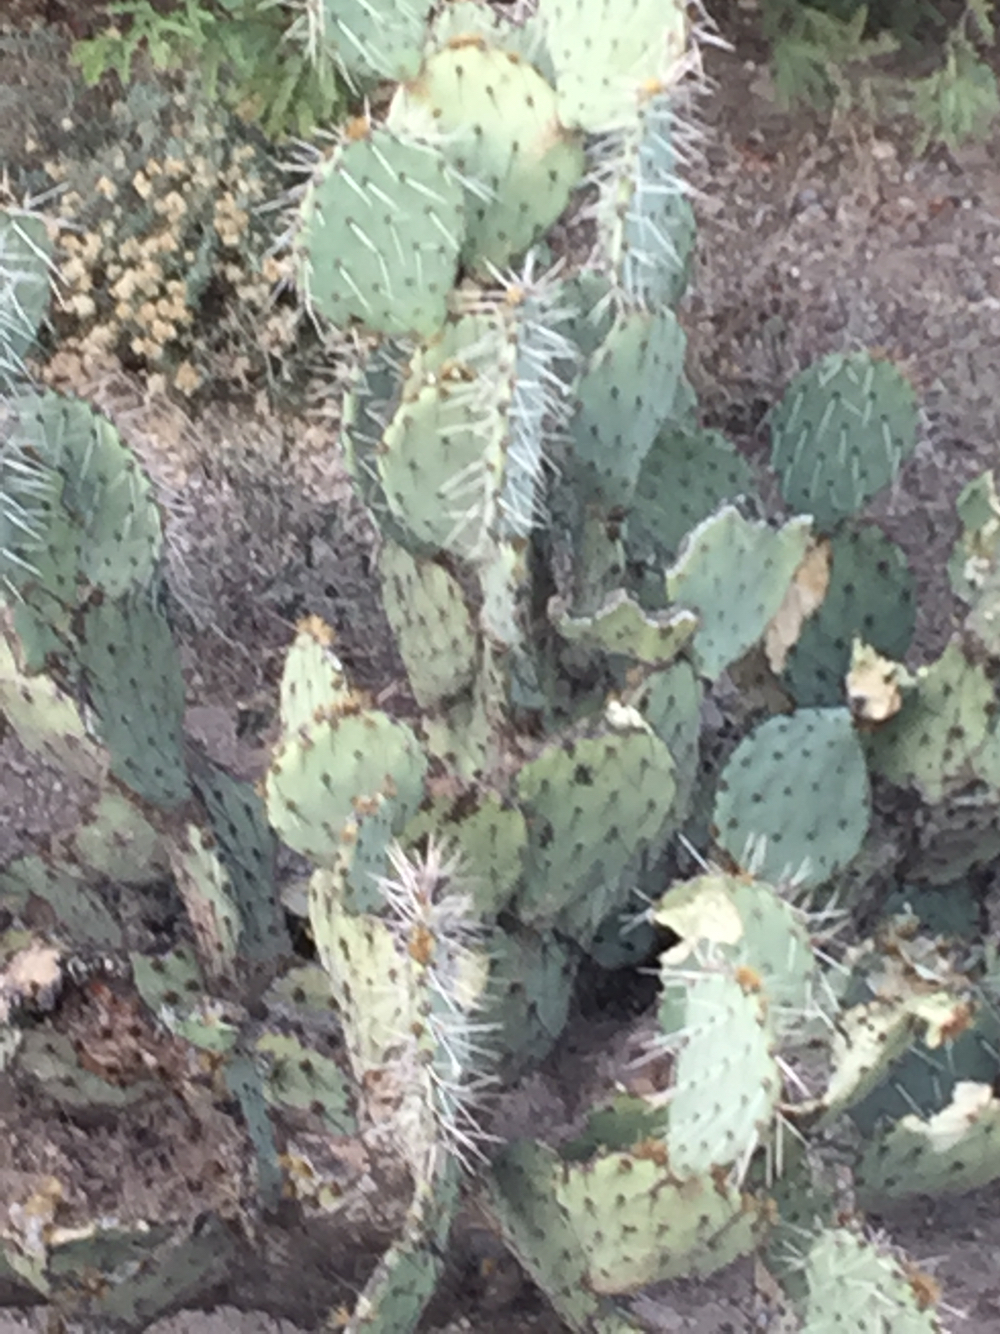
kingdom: Plantae
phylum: Tracheophyta
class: Magnoliopsida
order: Caryophyllales
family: Cactaceae
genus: Opuntia
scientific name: Opuntia engelmannii
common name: Cactus-apple
